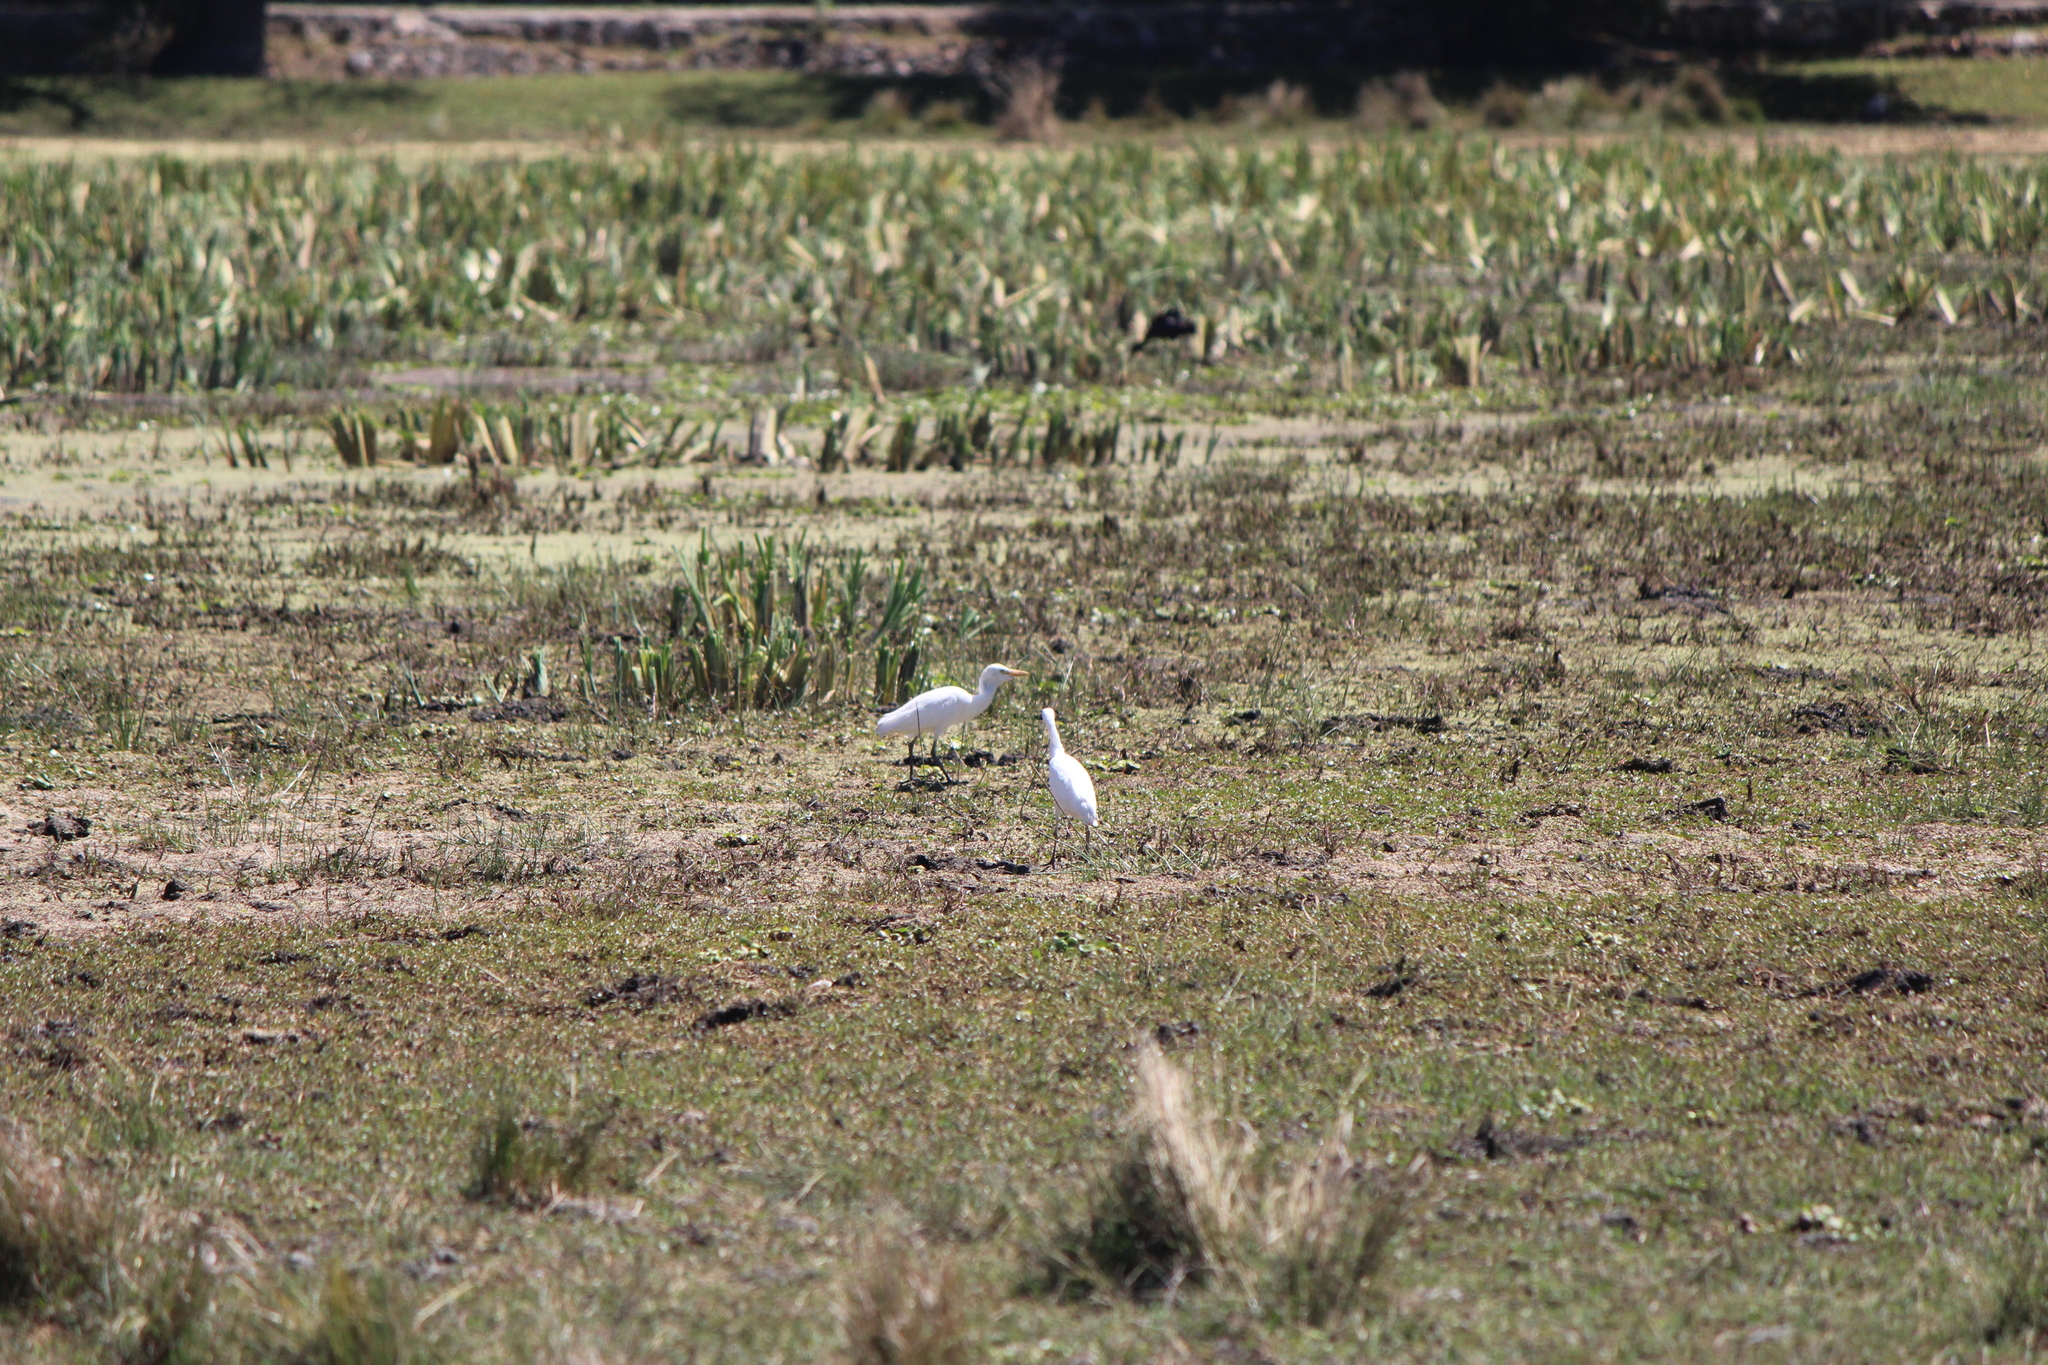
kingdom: Animalia
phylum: Chordata
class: Aves
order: Pelecaniformes
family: Ardeidae
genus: Bubulcus
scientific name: Bubulcus ibis
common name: Cattle egret
